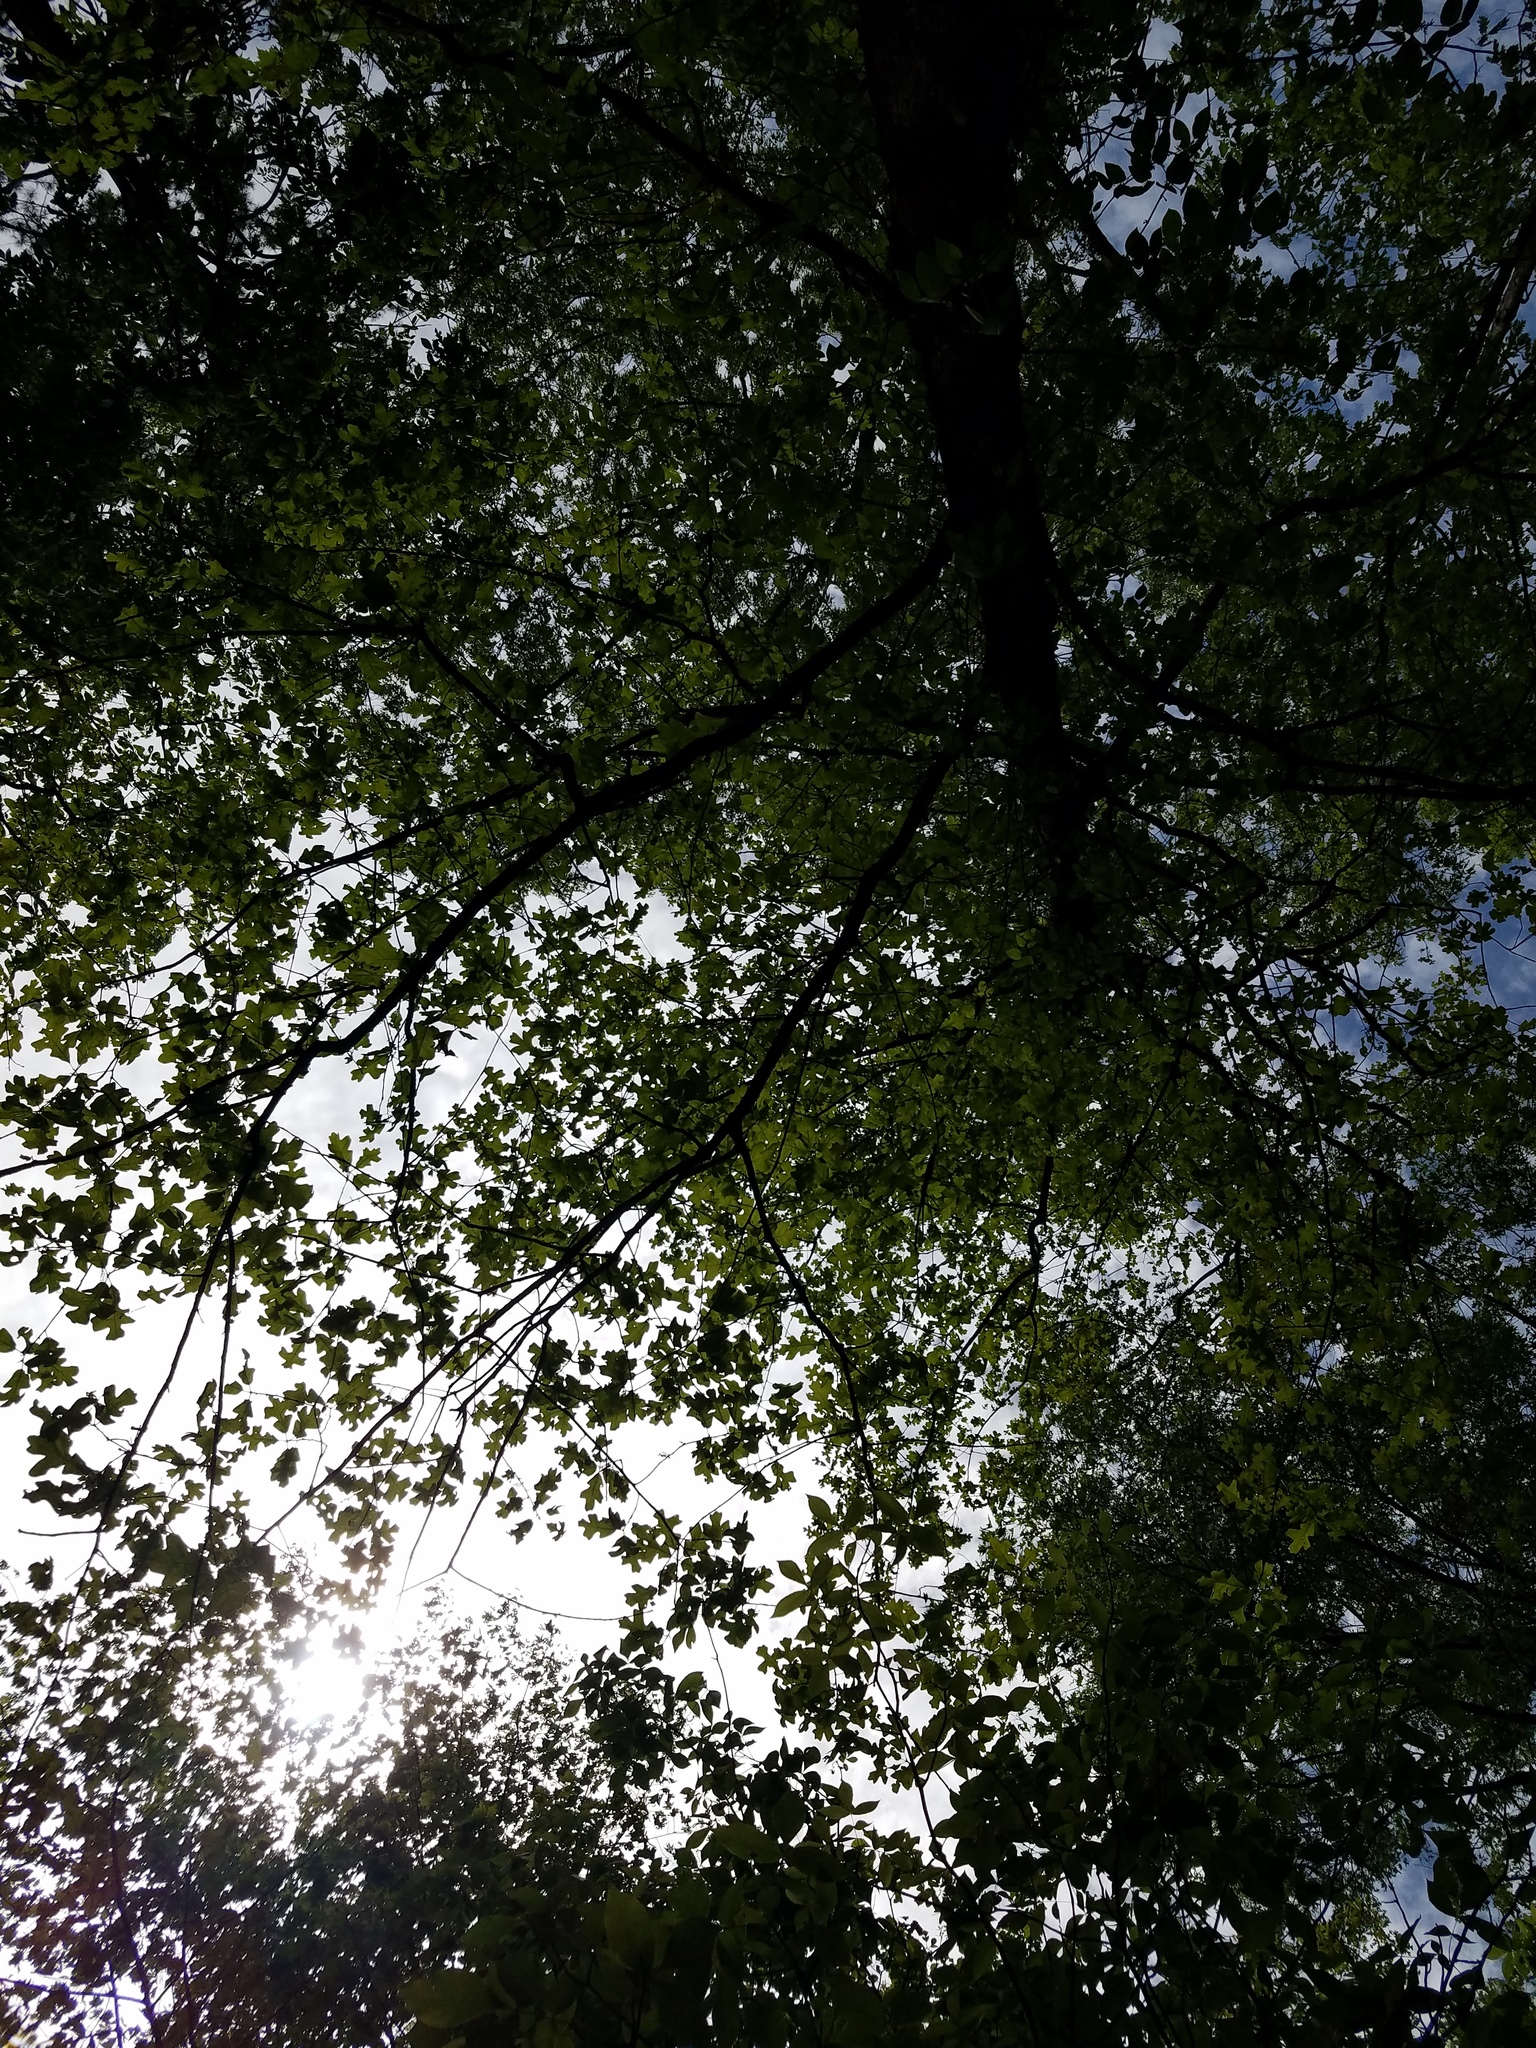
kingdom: Plantae
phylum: Tracheophyta
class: Magnoliopsida
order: Fagales
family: Fagaceae
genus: Quercus
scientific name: Quercus stellata
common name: Post oak
